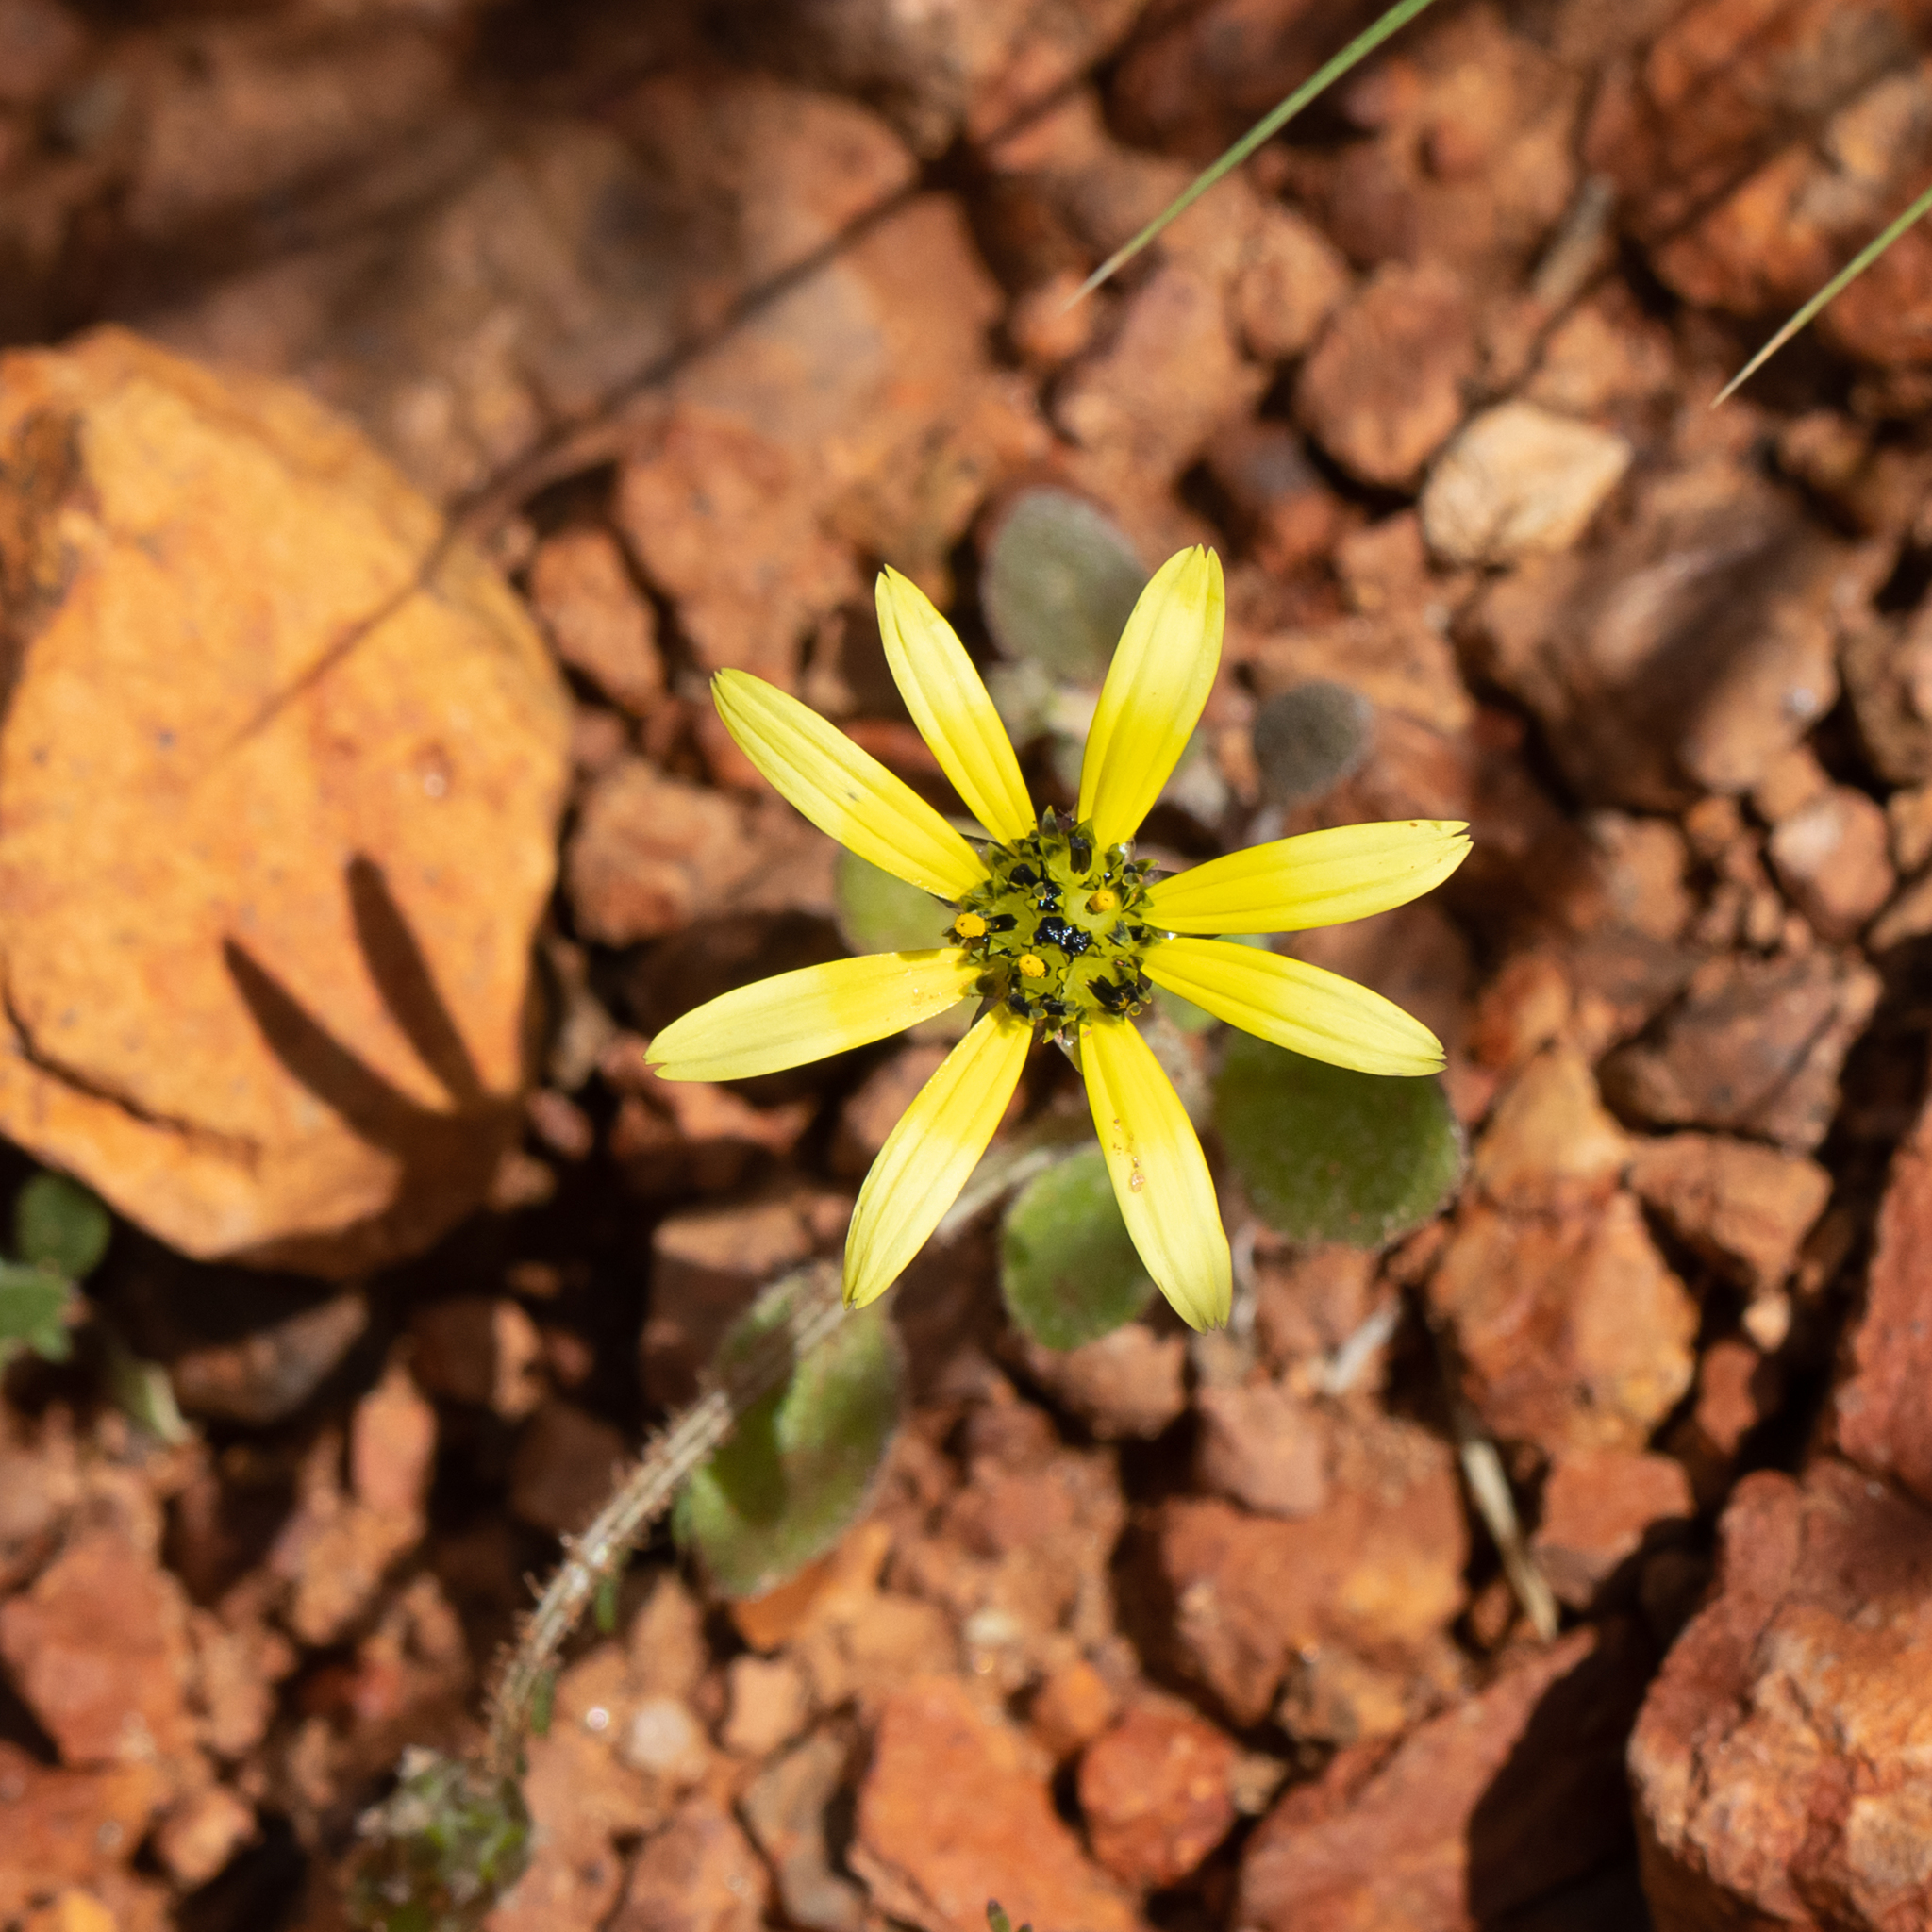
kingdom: Plantae
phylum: Tracheophyta
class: Magnoliopsida
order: Asterales
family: Asteraceae
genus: Arctotheca
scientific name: Arctotheca calendula
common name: Capeweed
